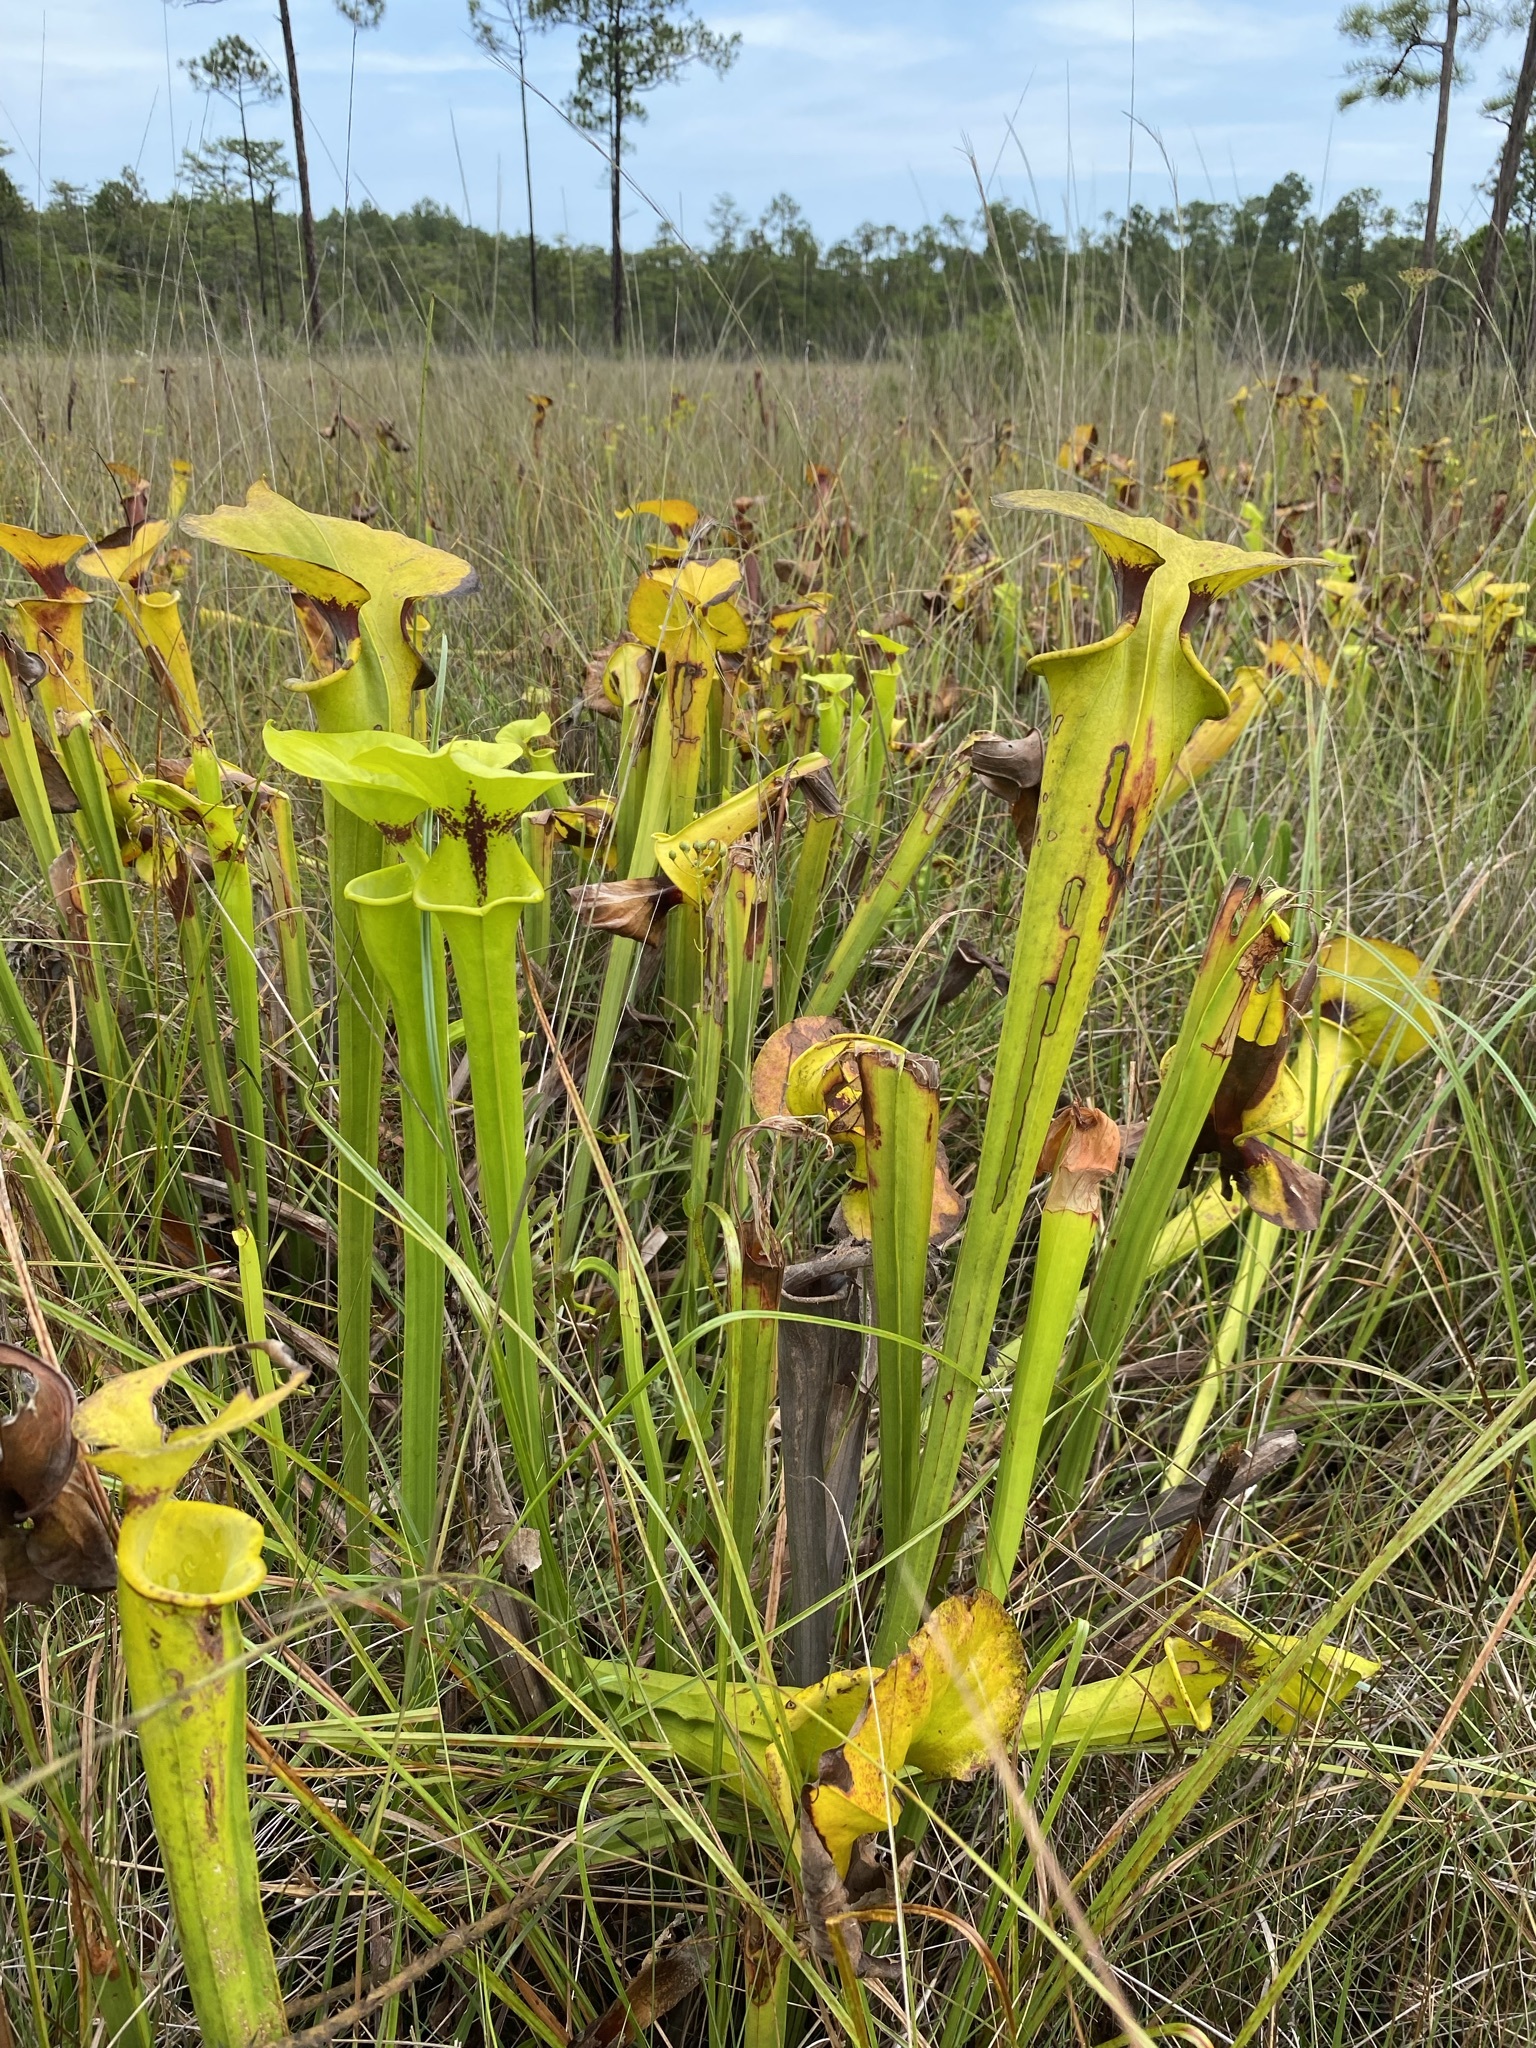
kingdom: Plantae
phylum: Tracheophyta
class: Magnoliopsida
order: Ericales
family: Sarraceniaceae
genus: Sarracenia
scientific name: Sarracenia flava
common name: Trumpets
